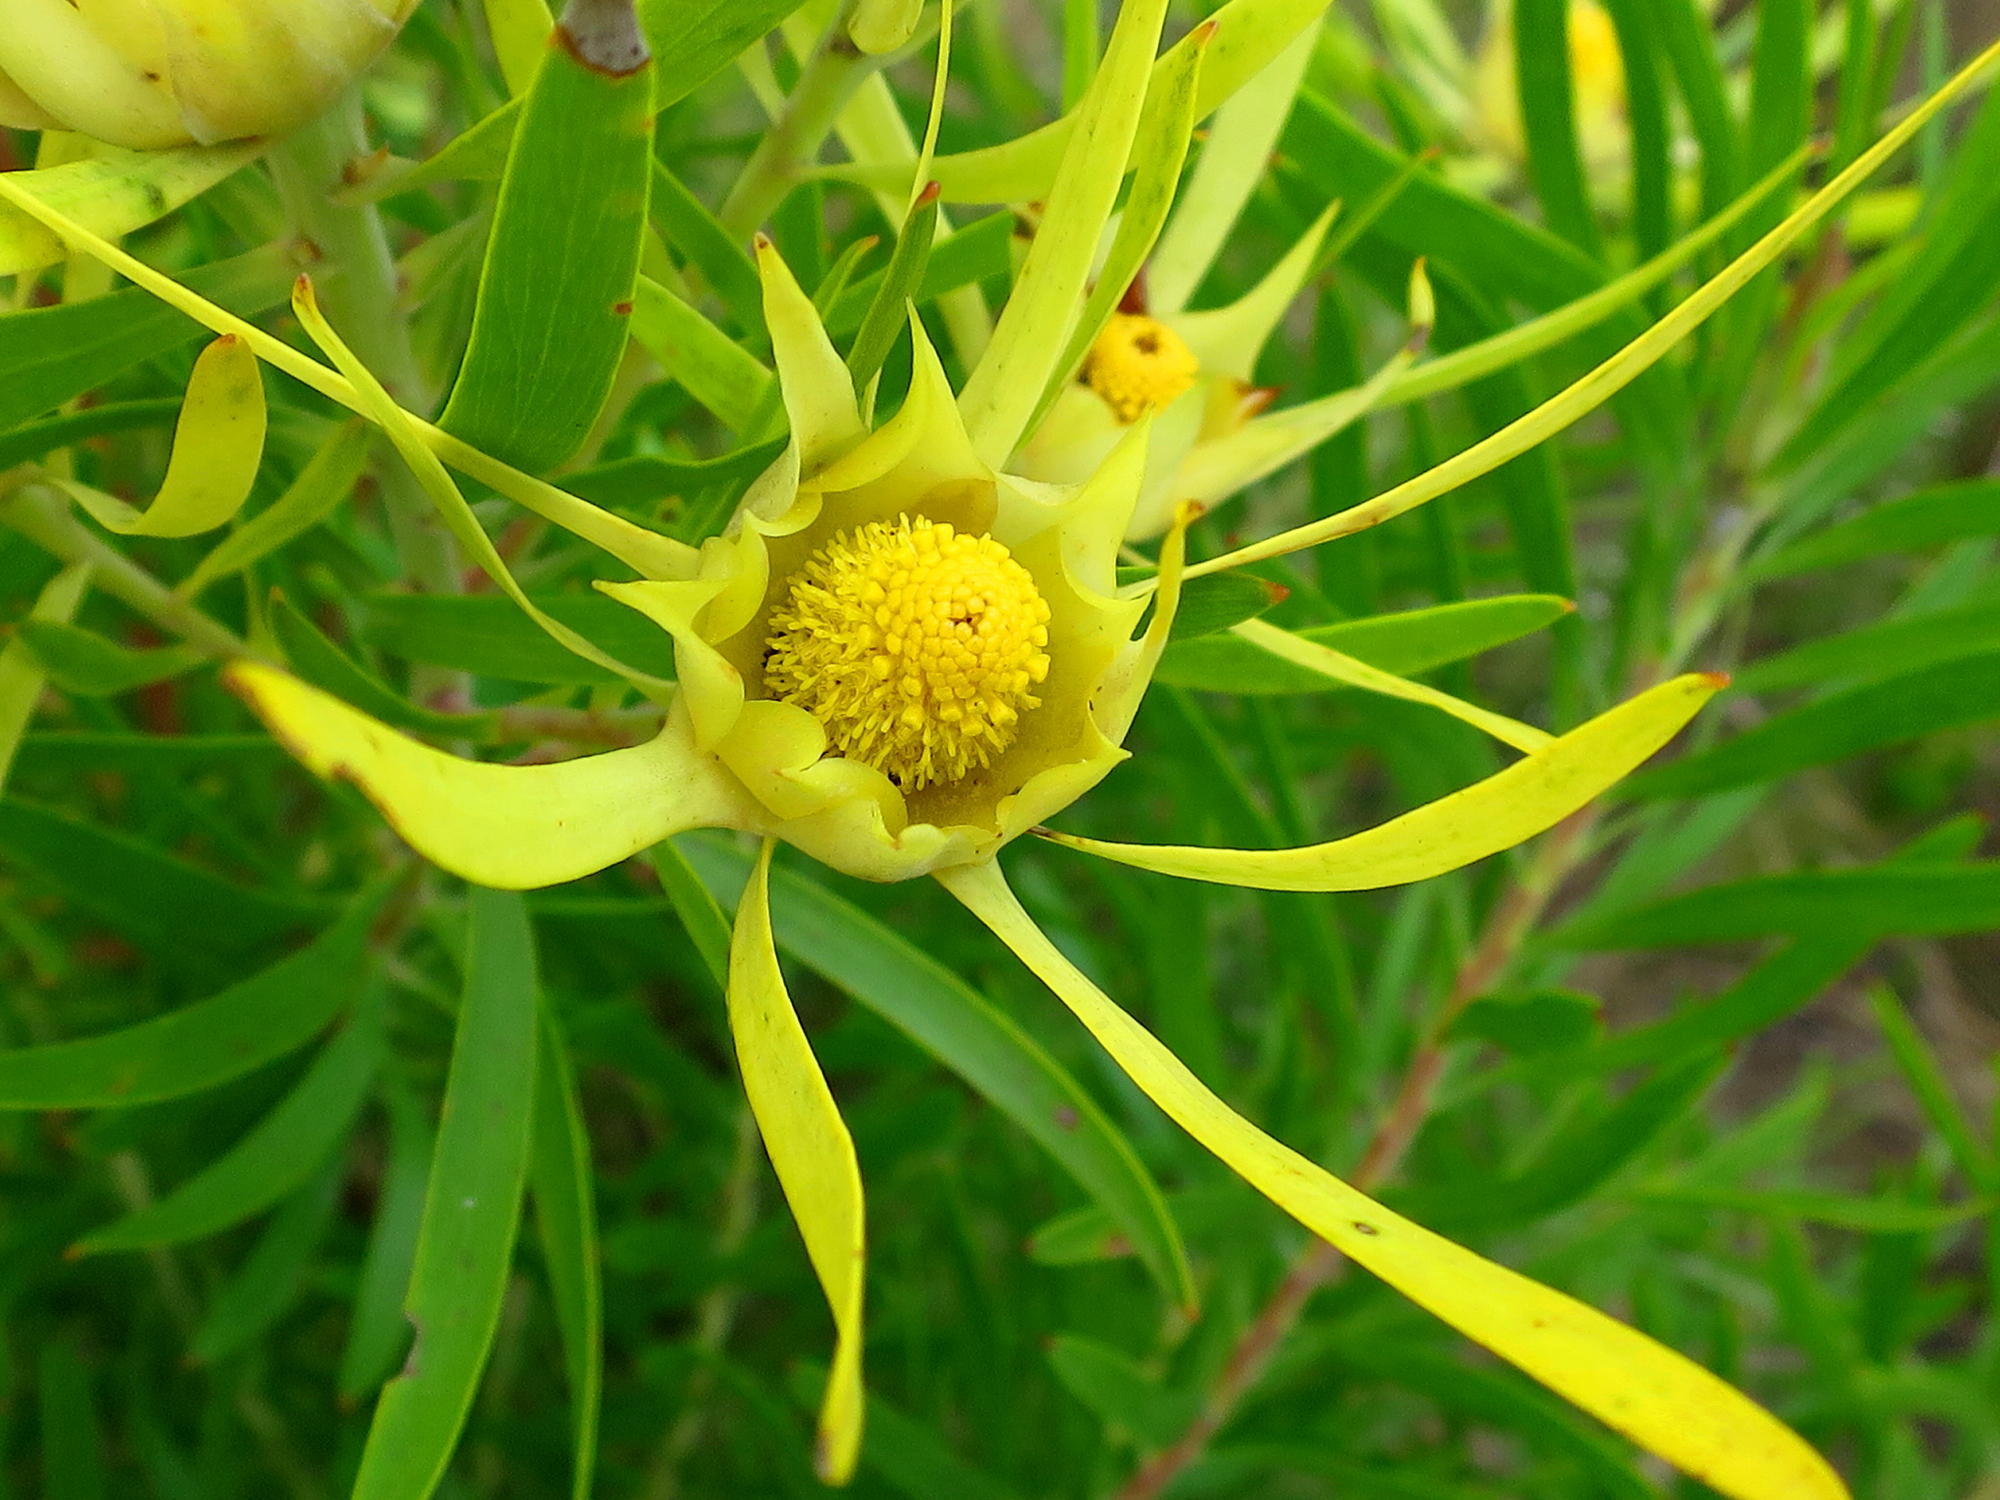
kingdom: Plantae
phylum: Tracheophyta
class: Magnoliopsida
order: Proteales
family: Proteaceae
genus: Leucadendron
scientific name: Leucadendron eucalyptifolium
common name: Gum-leaved conebush
